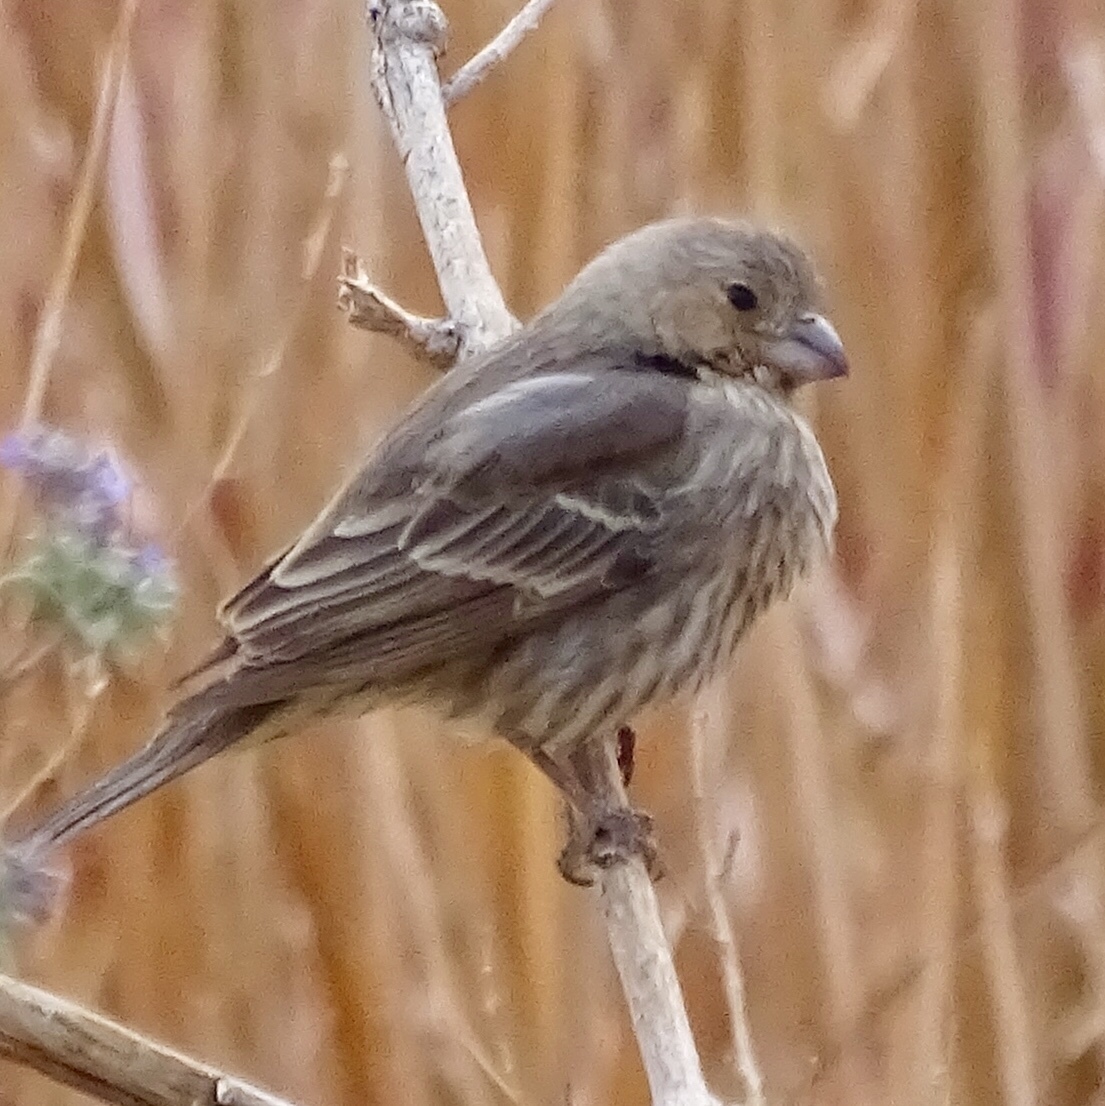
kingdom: Animalia
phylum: Chordata
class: Aves
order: Passeriformes
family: Fringillidae
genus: Haemorhous
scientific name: Haemorhous mexicanus
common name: House finch
